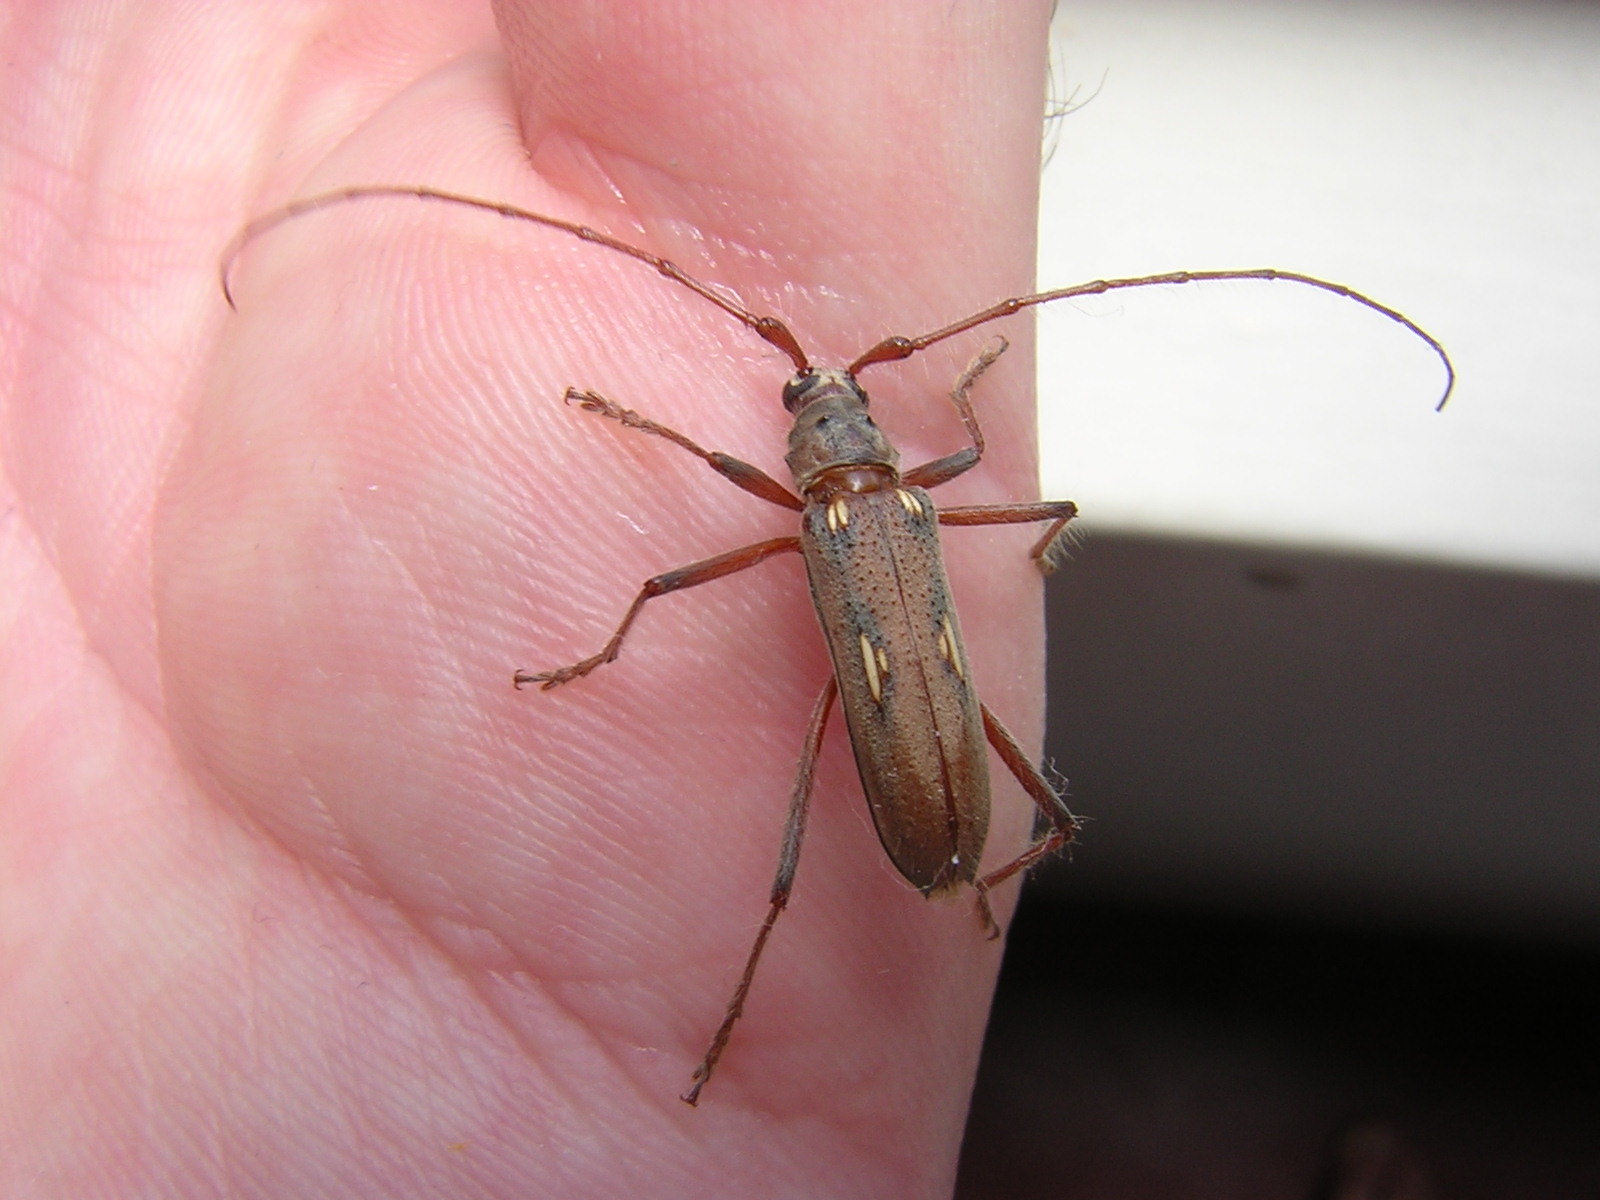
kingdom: Animalia
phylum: Arthropoda
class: Insecta
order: Coleoptera
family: Cerambycidae
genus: Eburia
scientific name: Eburia pilosa
